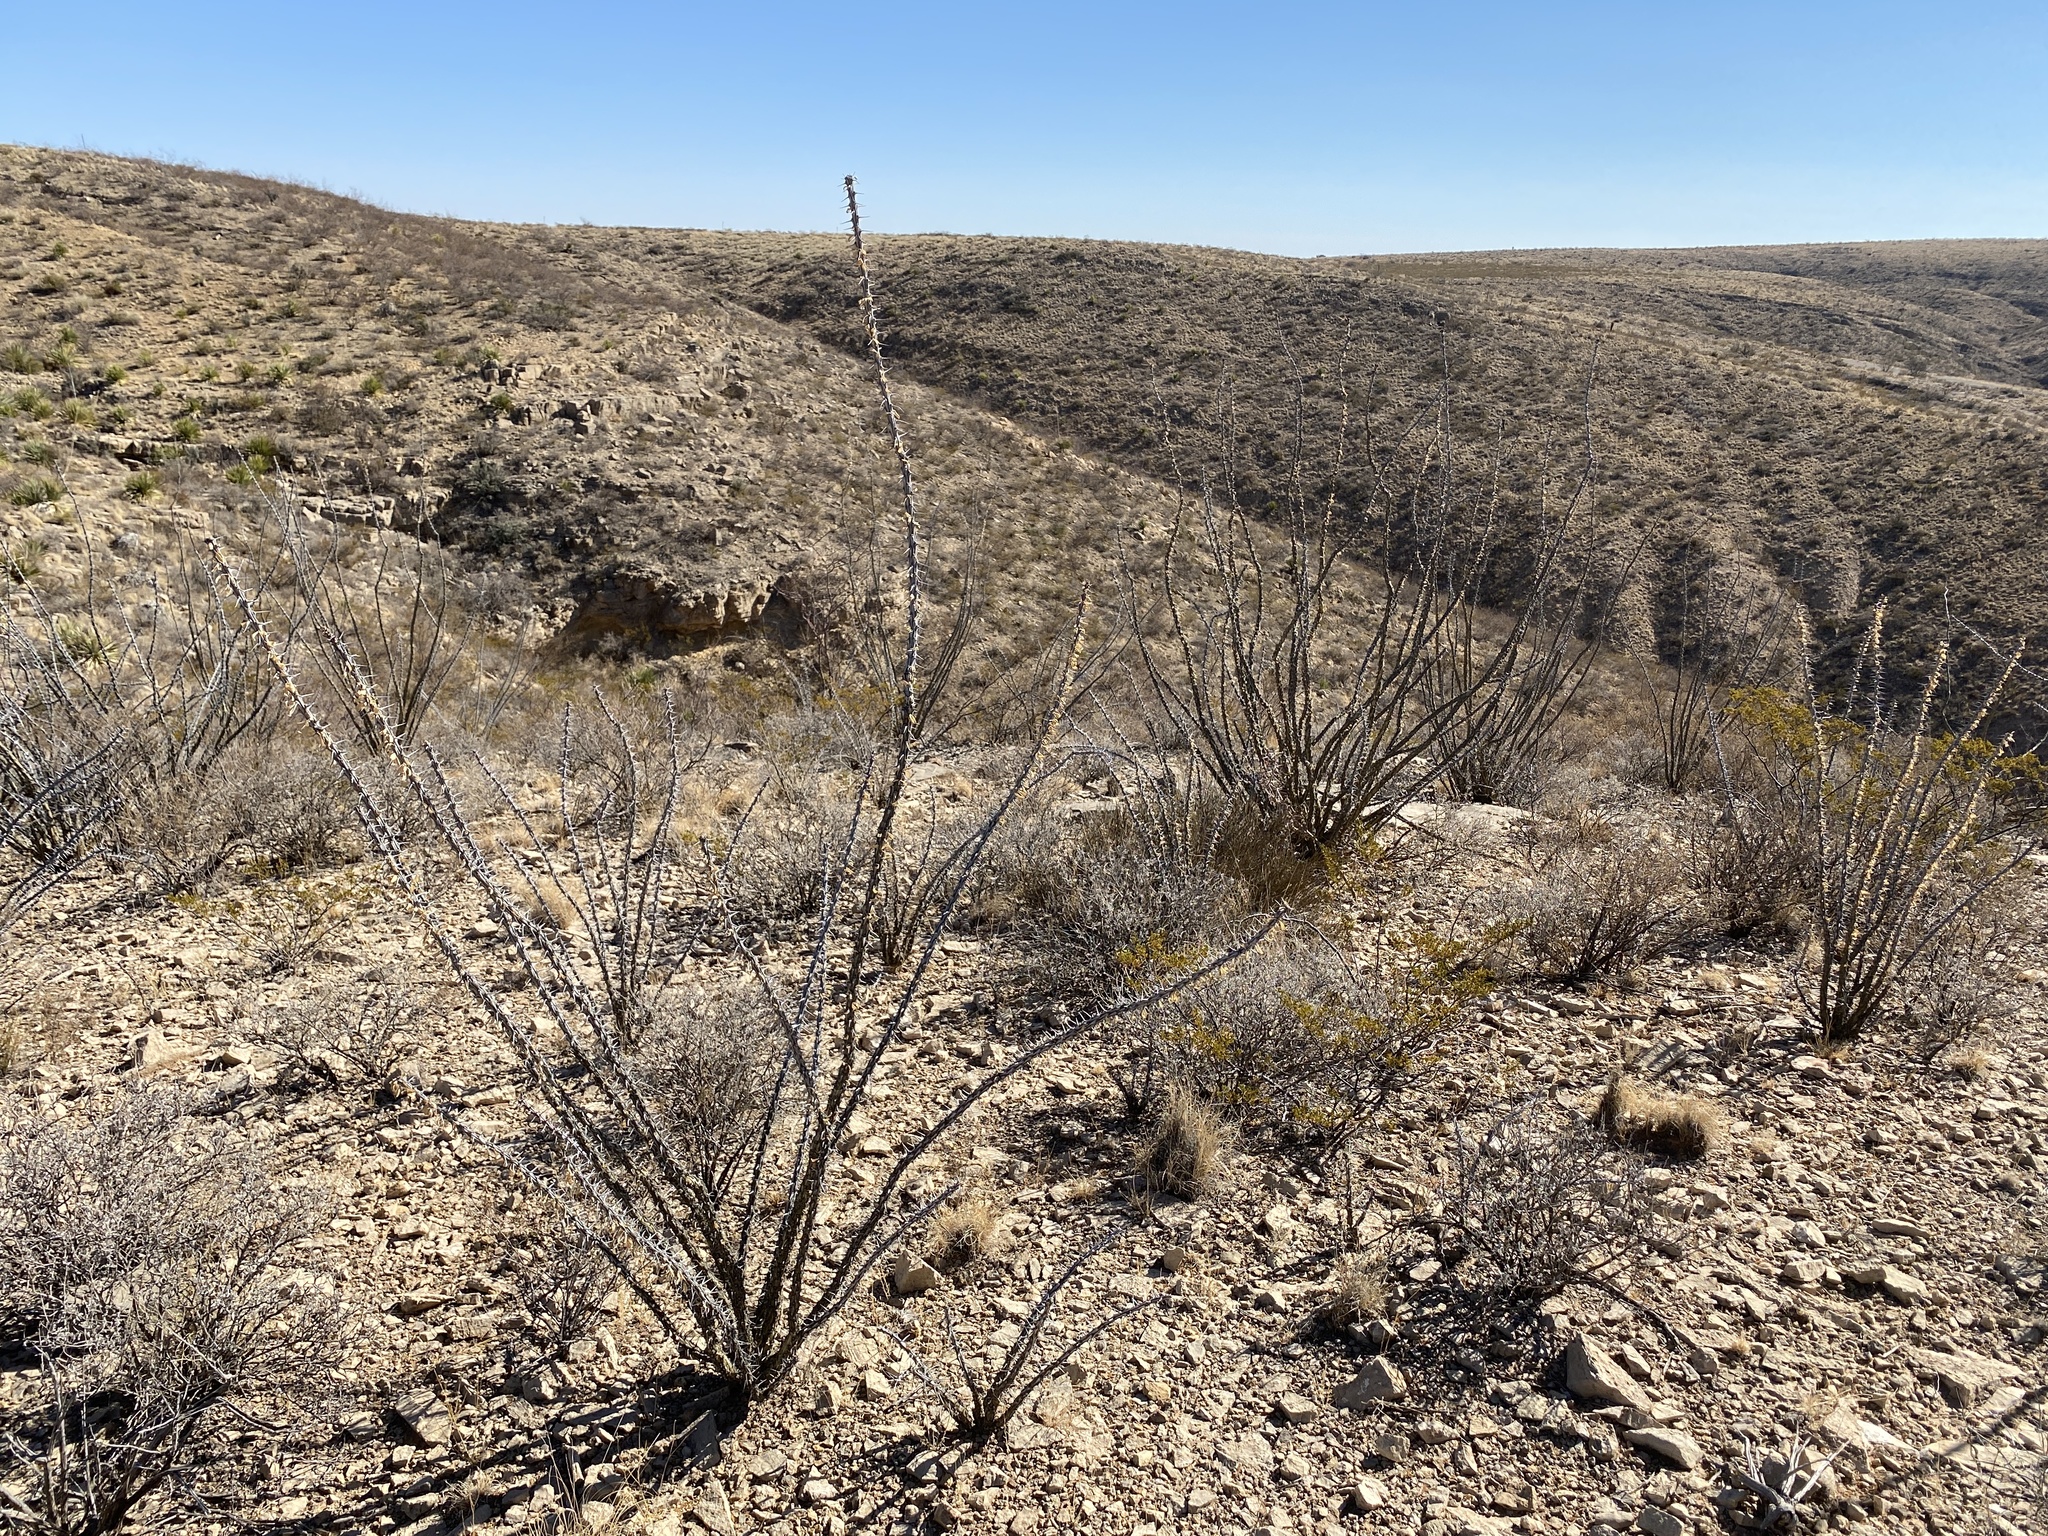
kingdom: Plantae
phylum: Tracheophyta
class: Magnoliopsida
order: Ericales
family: Fouquieriaceae
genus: Fouquieria
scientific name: Fouquieria splendens
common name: Vine-cactus
